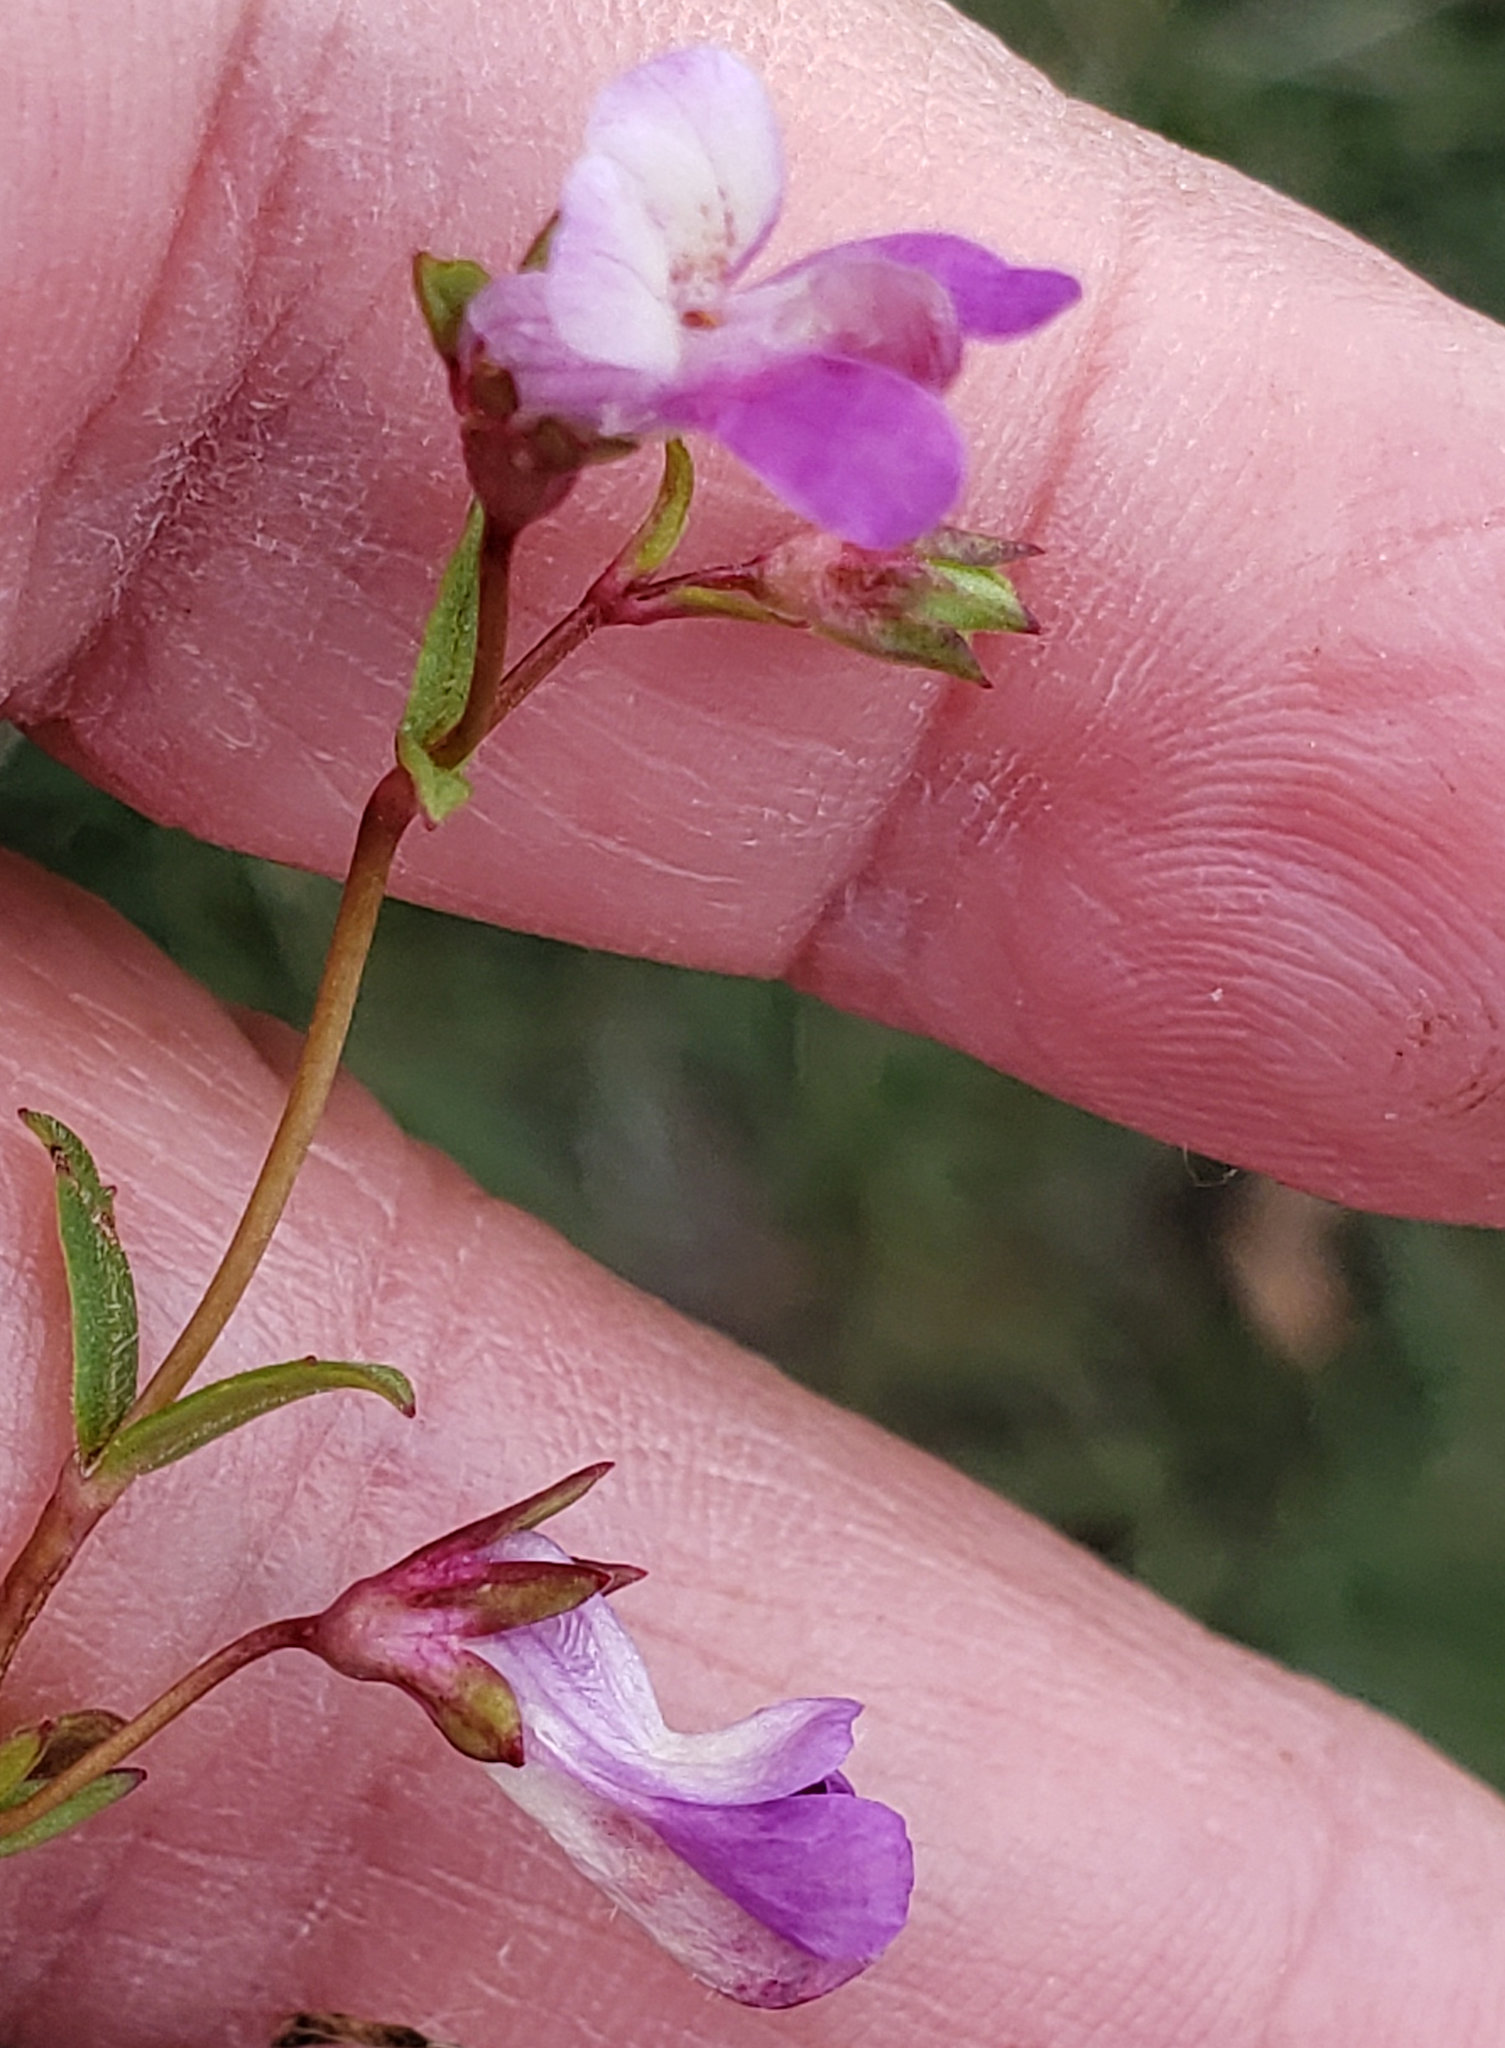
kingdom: Plantae
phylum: Tracheophyta
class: Magnoliopsida
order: Lamiales
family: Plantaginaceae
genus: Collinsia
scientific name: Collinsia sparsiflora
